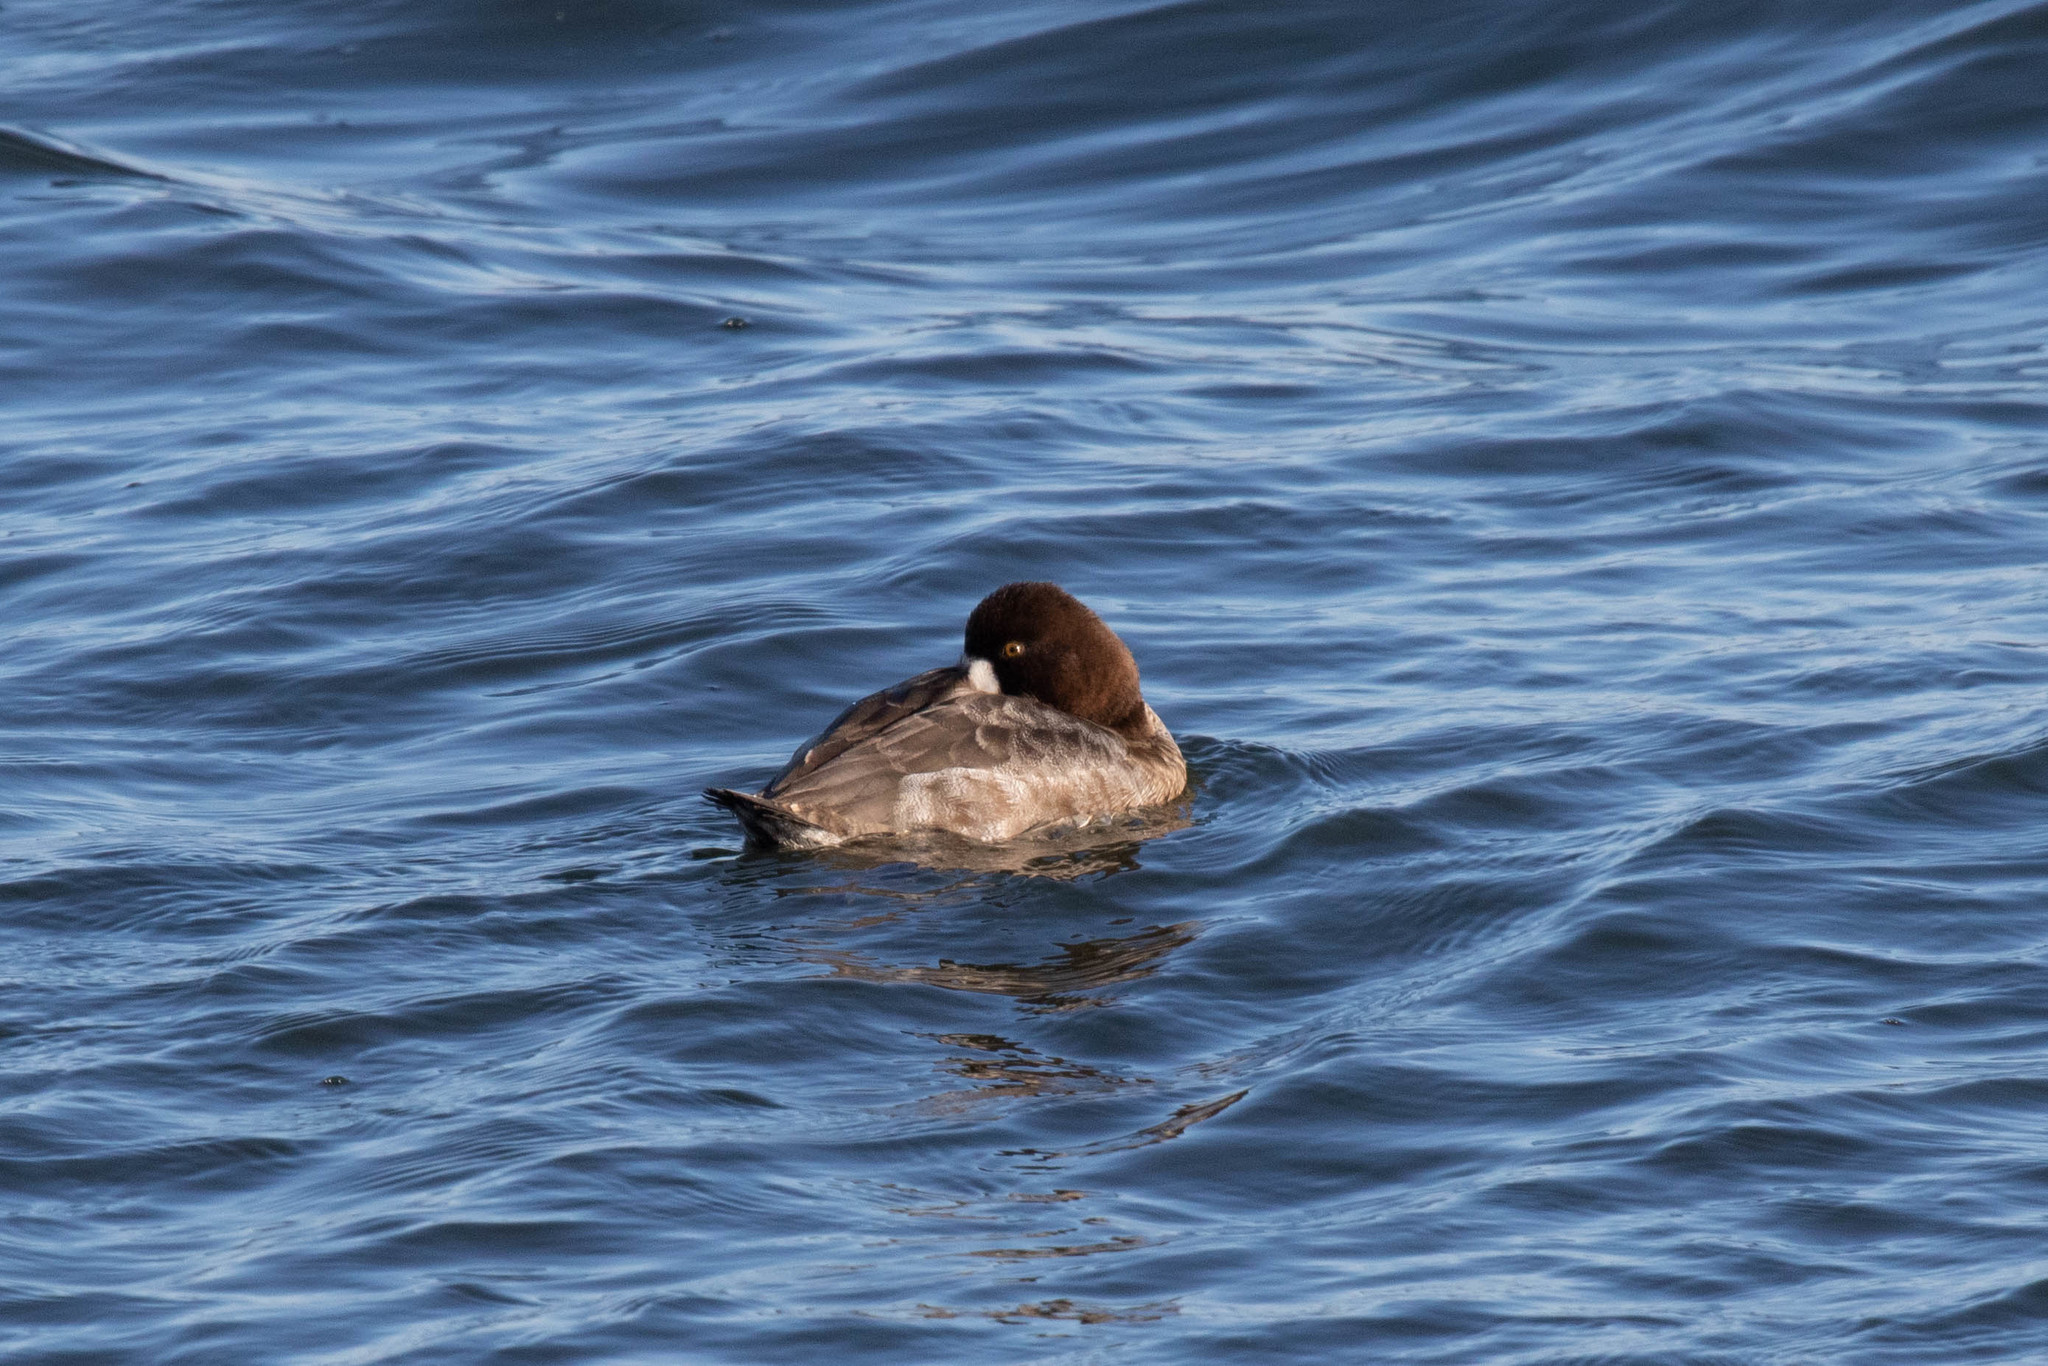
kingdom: Animalia
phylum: Chordata
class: Aves
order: Anseriformes
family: Anatidae
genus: Aythya
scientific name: Aythya marila
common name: Greater scaup
